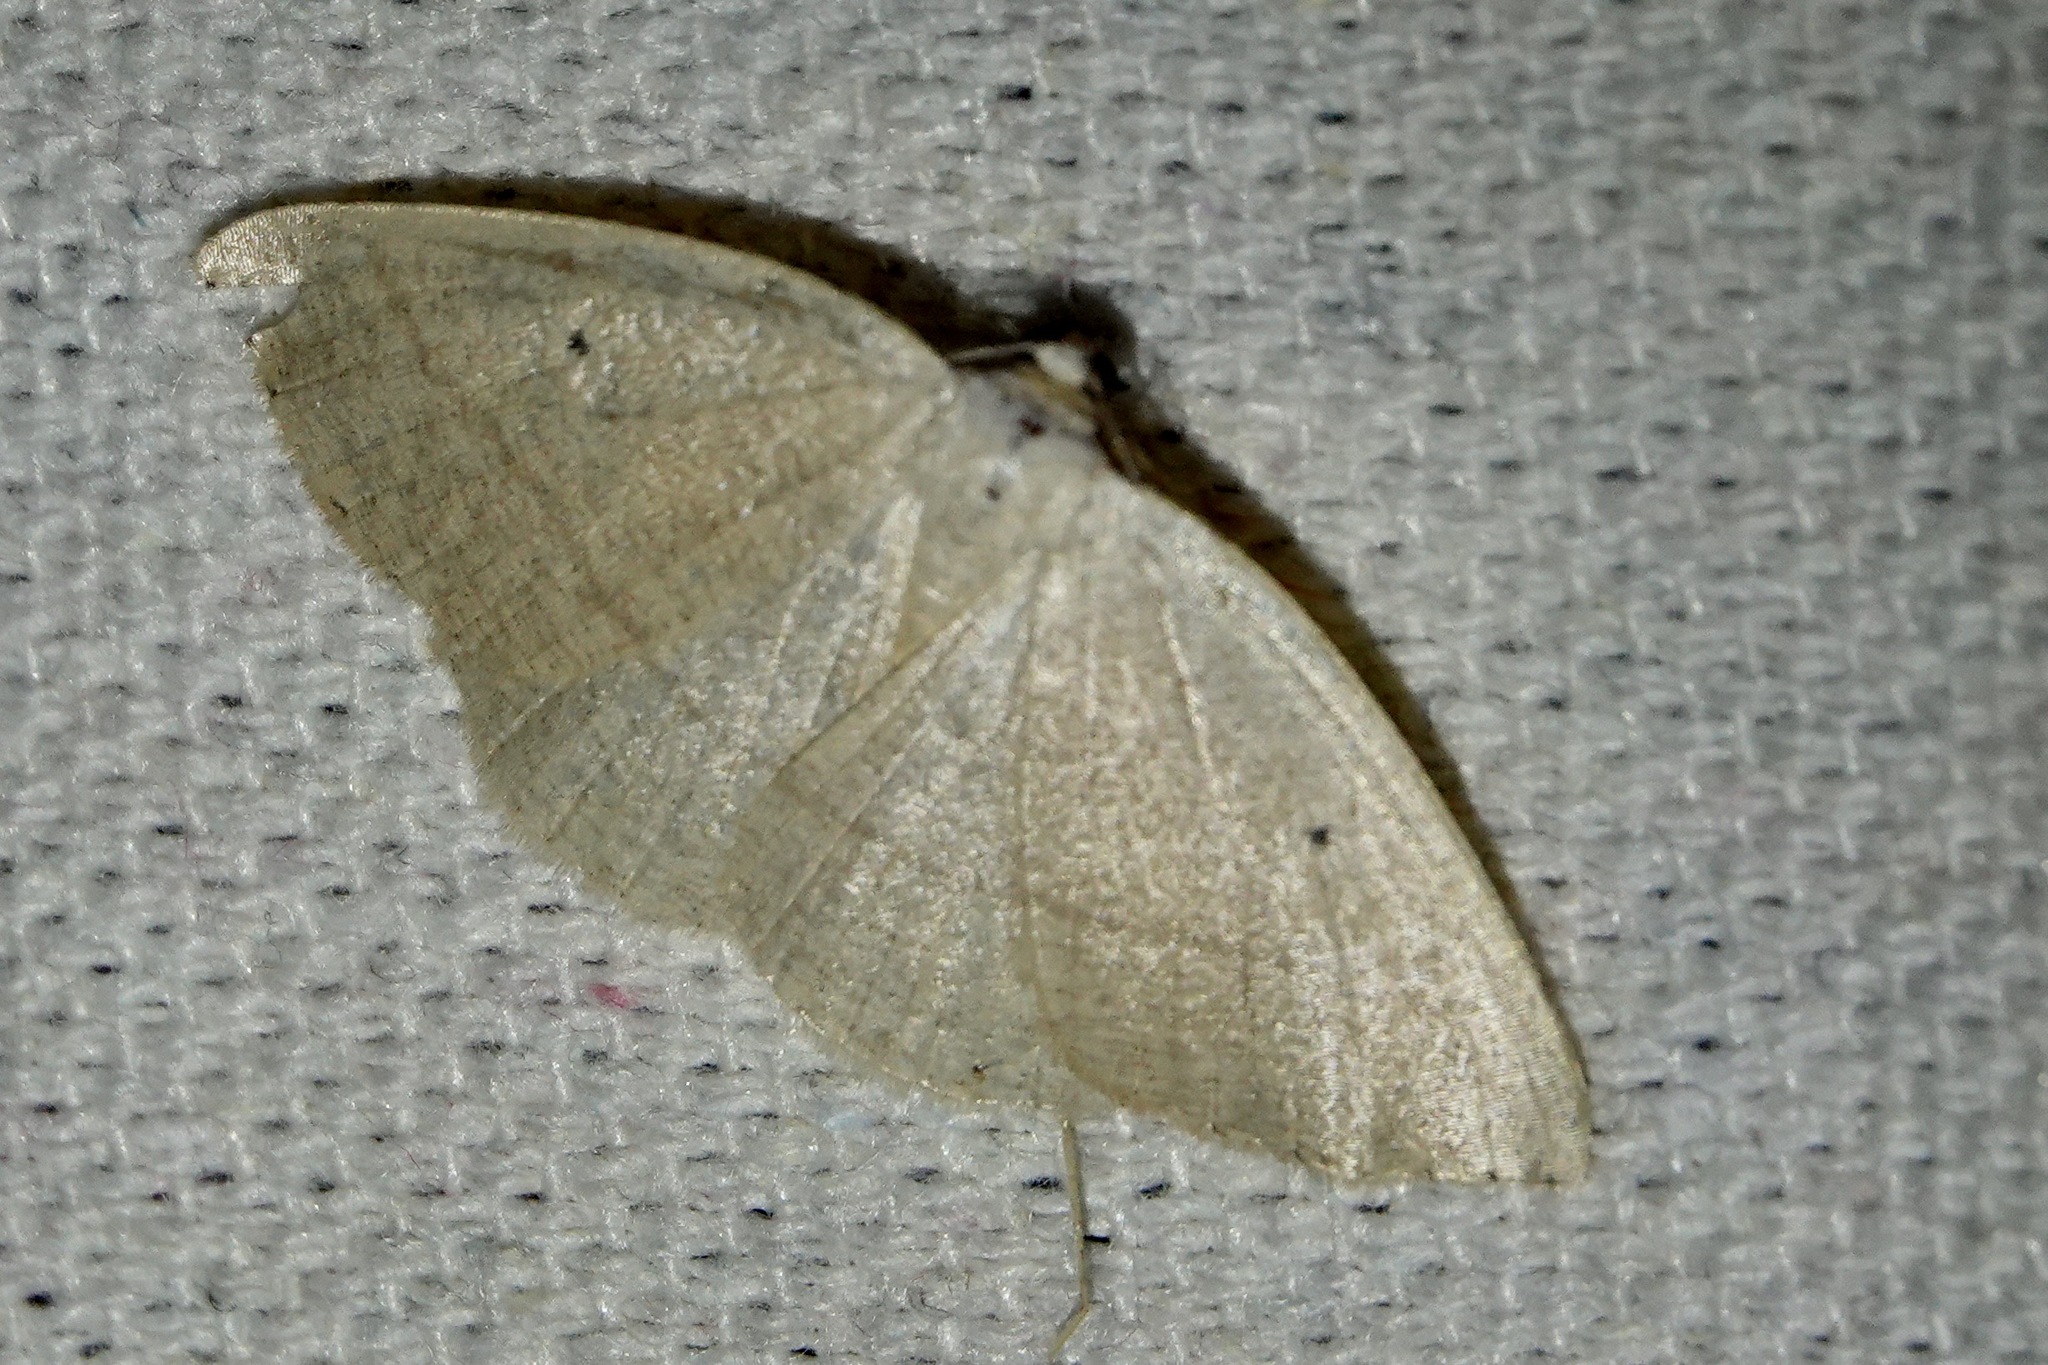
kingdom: Animalia
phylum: Arthropoda
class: Insecta
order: Lepidoptera
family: Geometridae
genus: Eudrepanulatrix
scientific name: Eudrepanulatrix rectifascia
